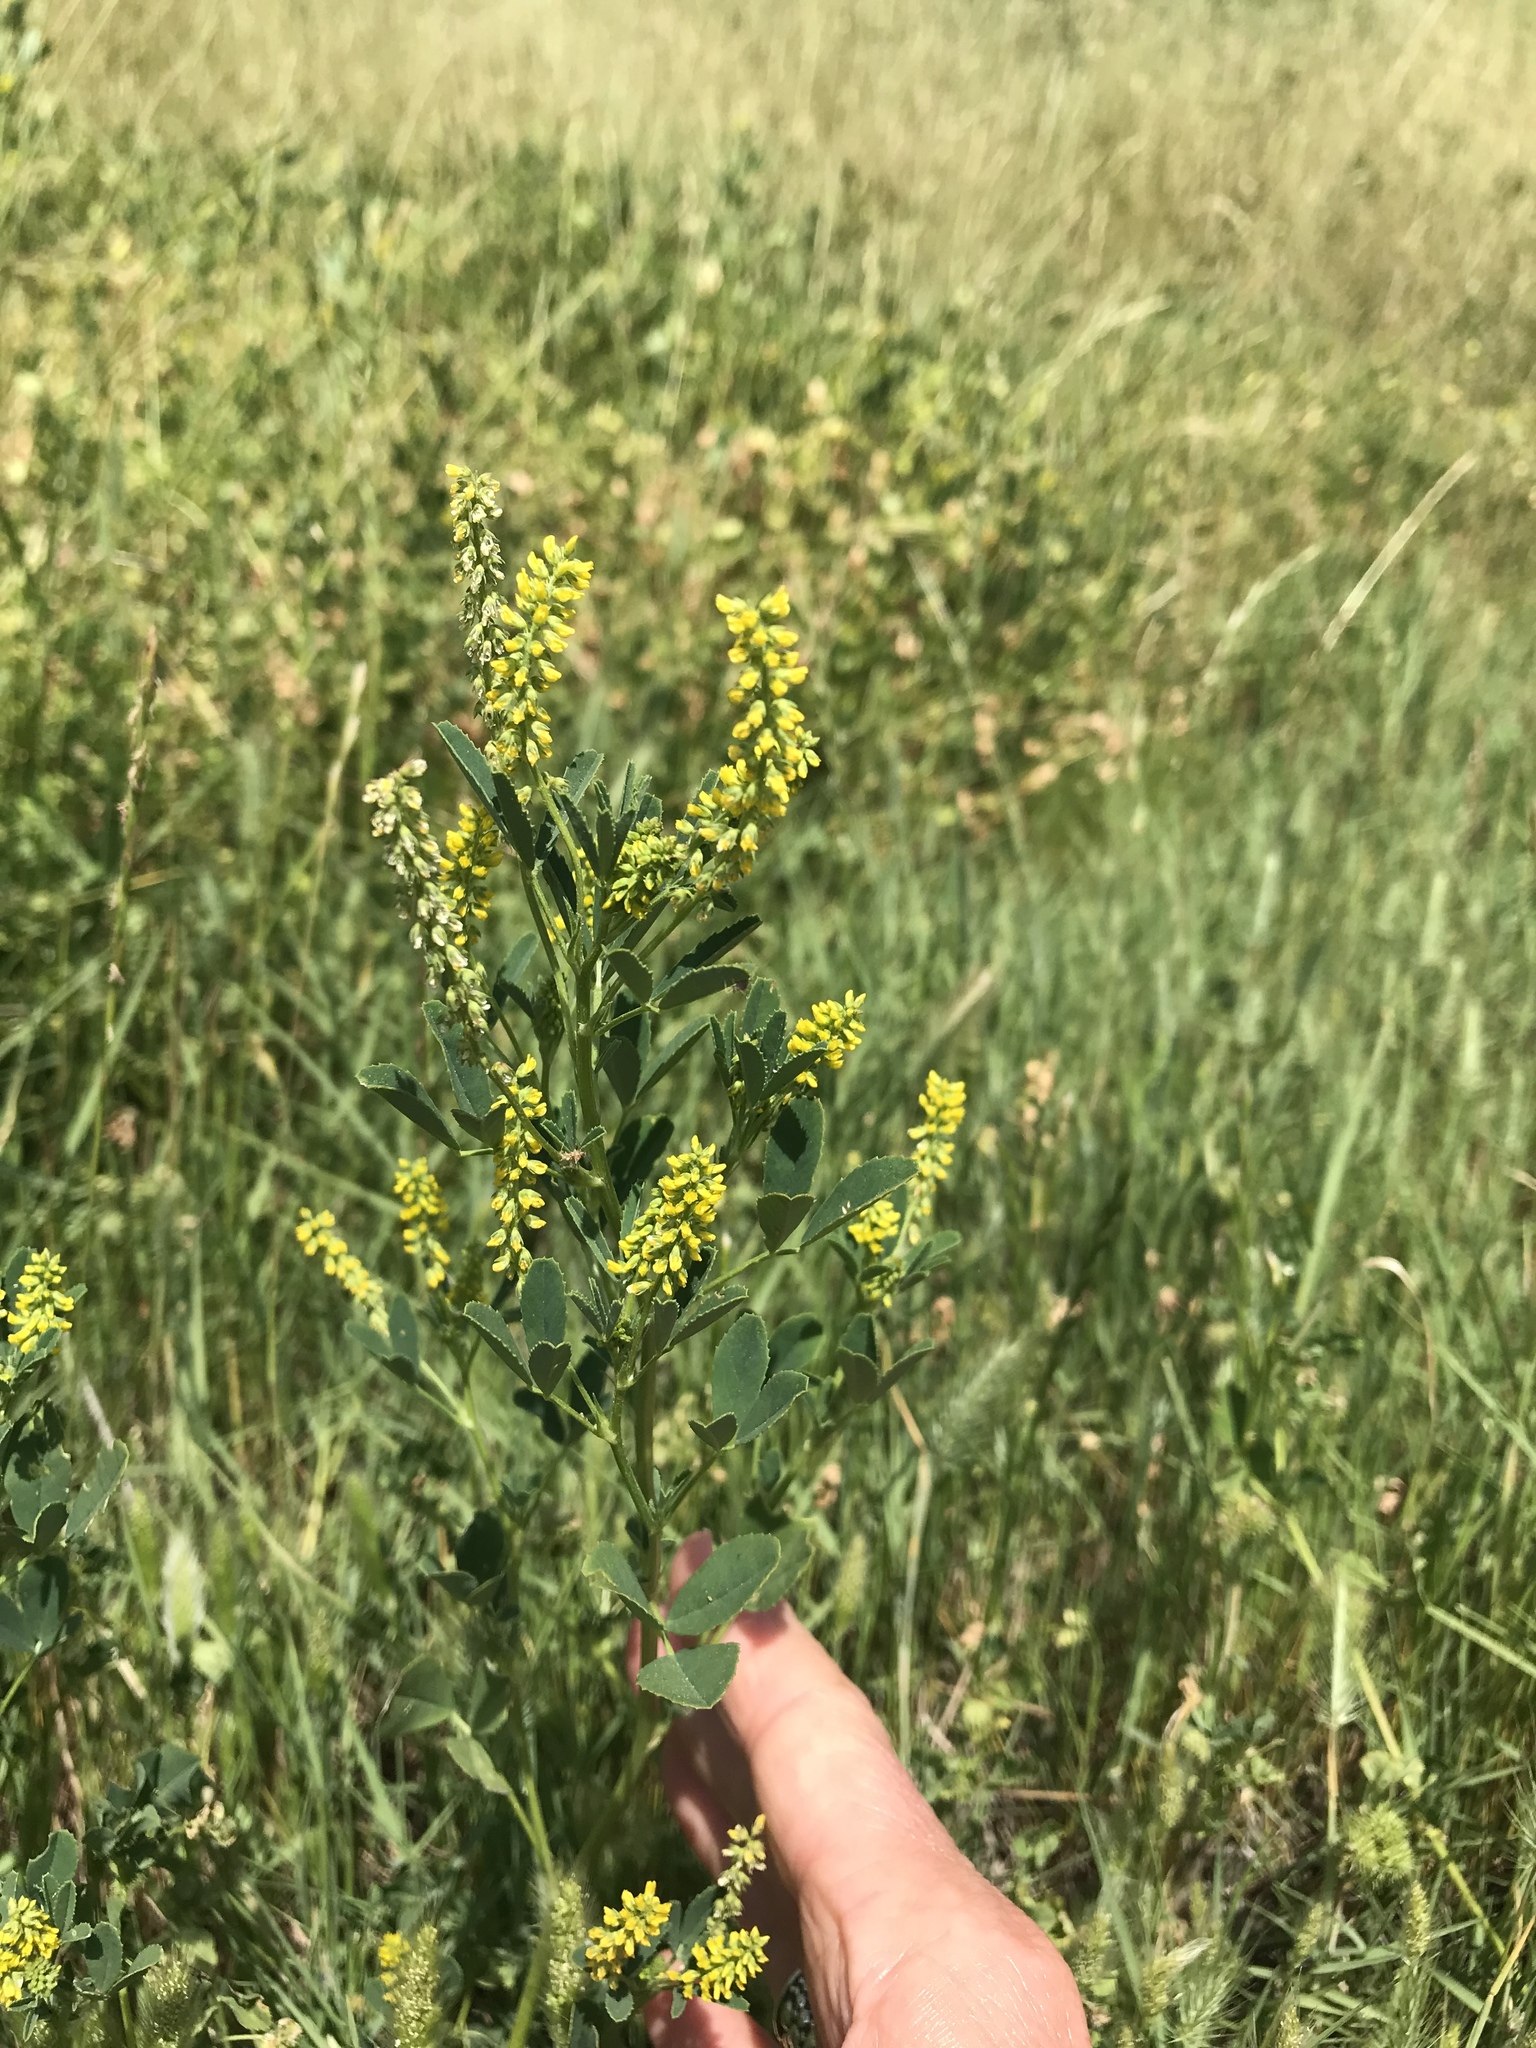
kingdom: Plantae
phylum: Tracheophyta
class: Magnoliopsida
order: Fabales
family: Fabaceae
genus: Melilotus
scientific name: Melilotus indicus
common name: Small melilot
